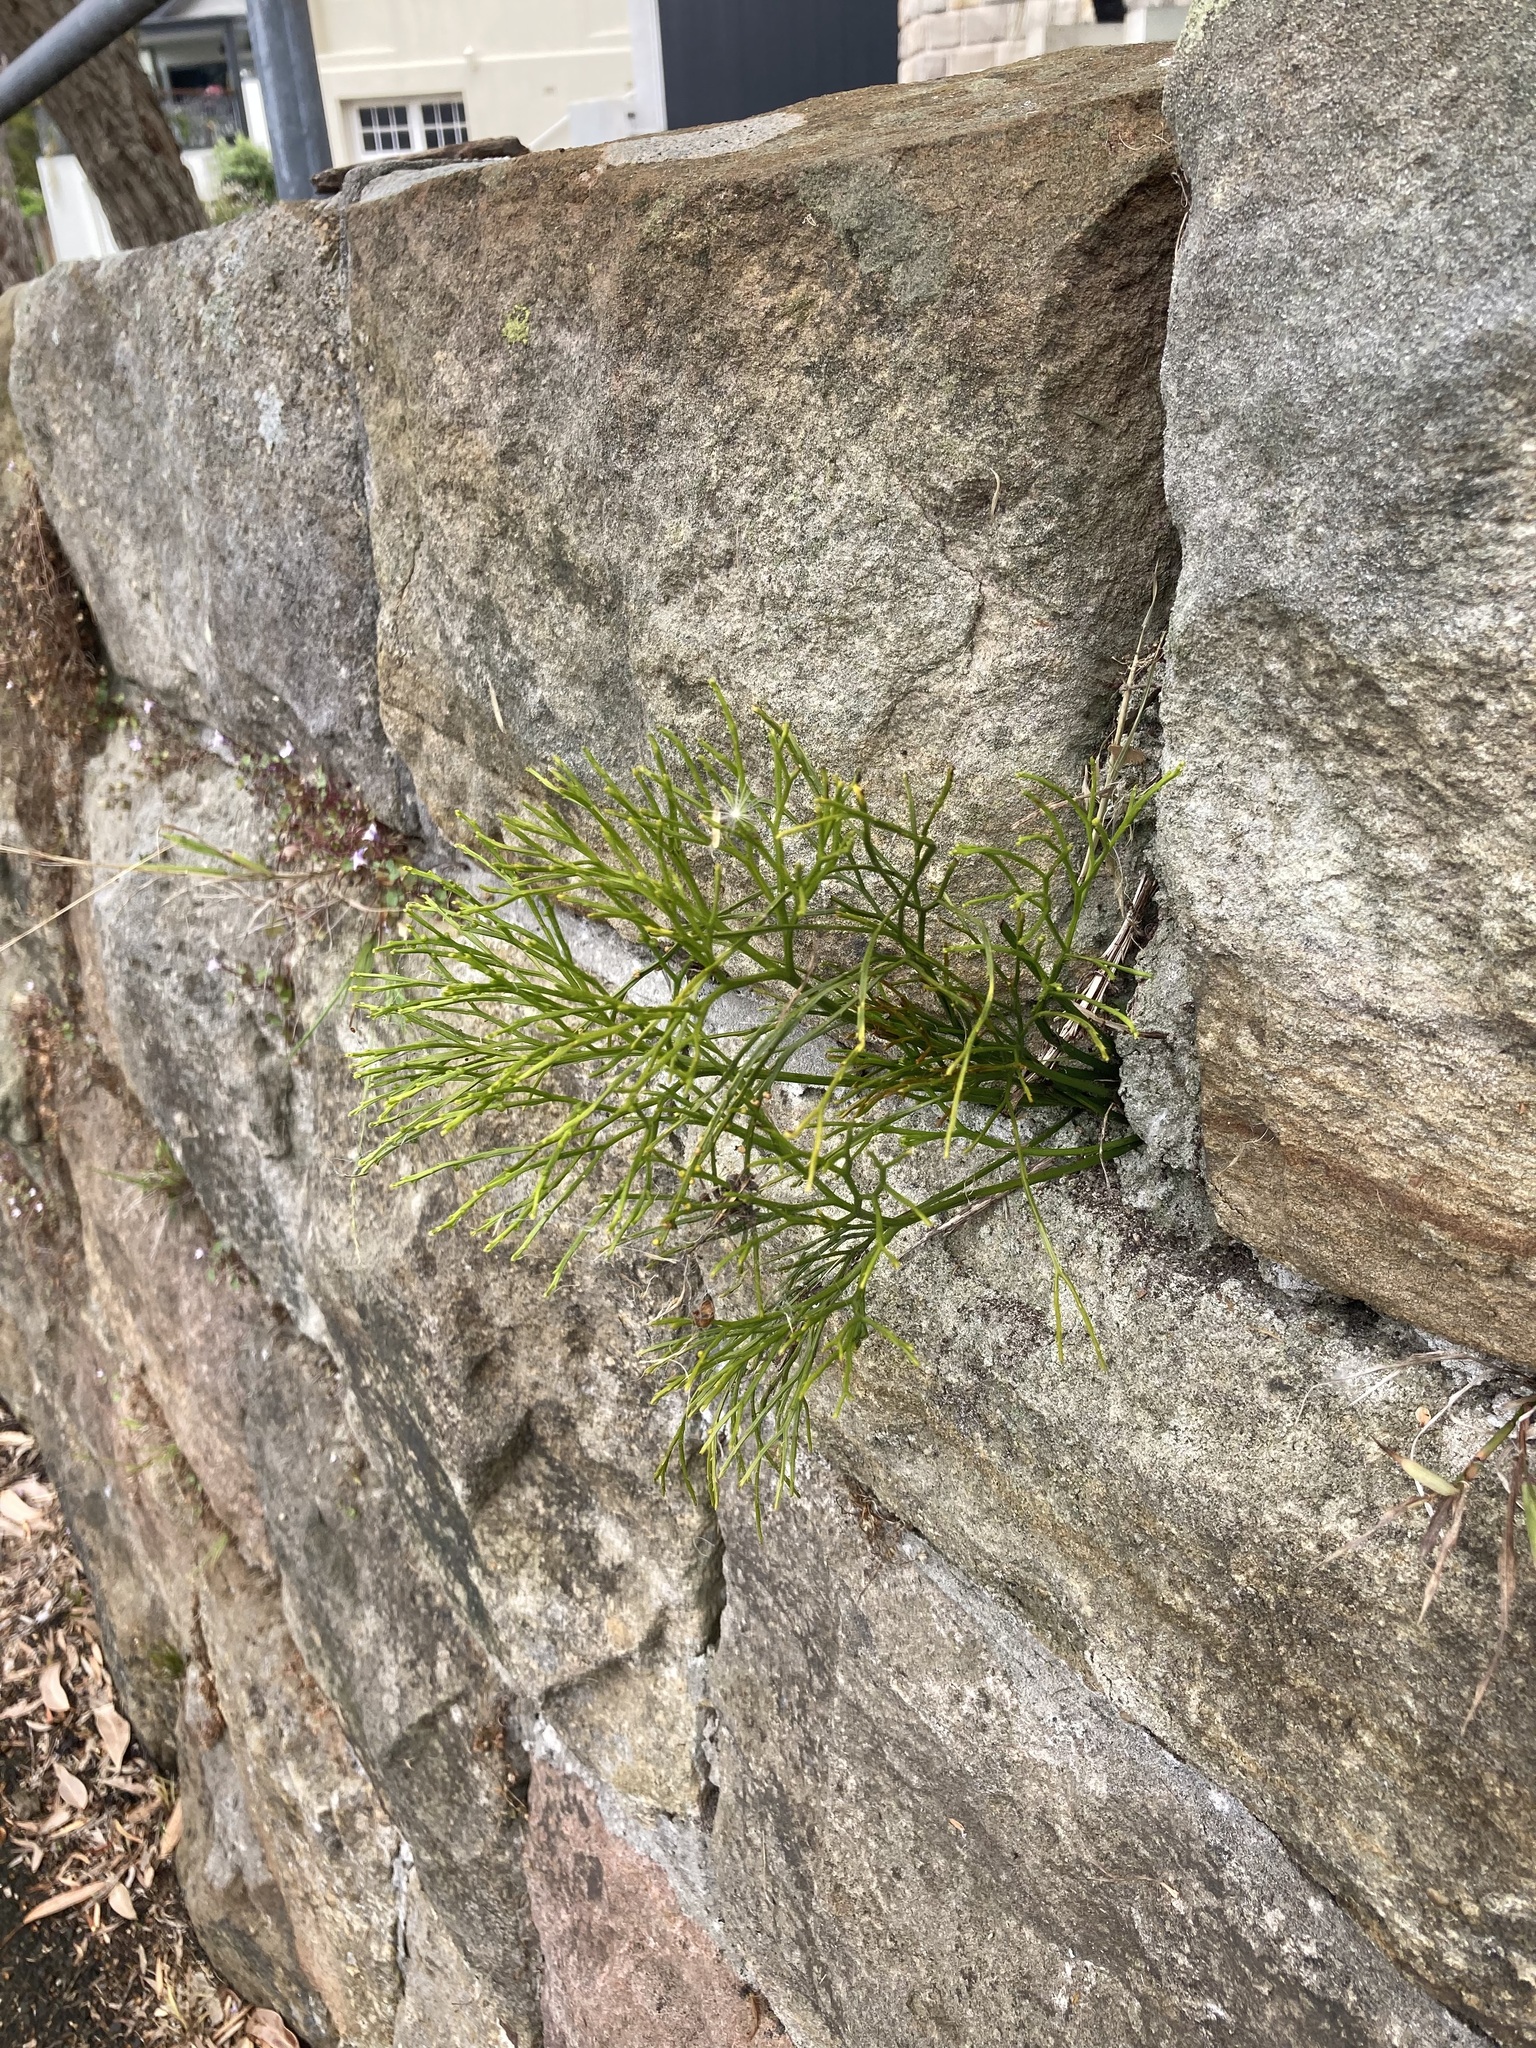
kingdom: Plantae
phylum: Tracheophyta
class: Polypodiopsida
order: Psilotales
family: Psilotaceae
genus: Psilotum
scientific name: Psilotum nudum
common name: Skeleton fork fern
